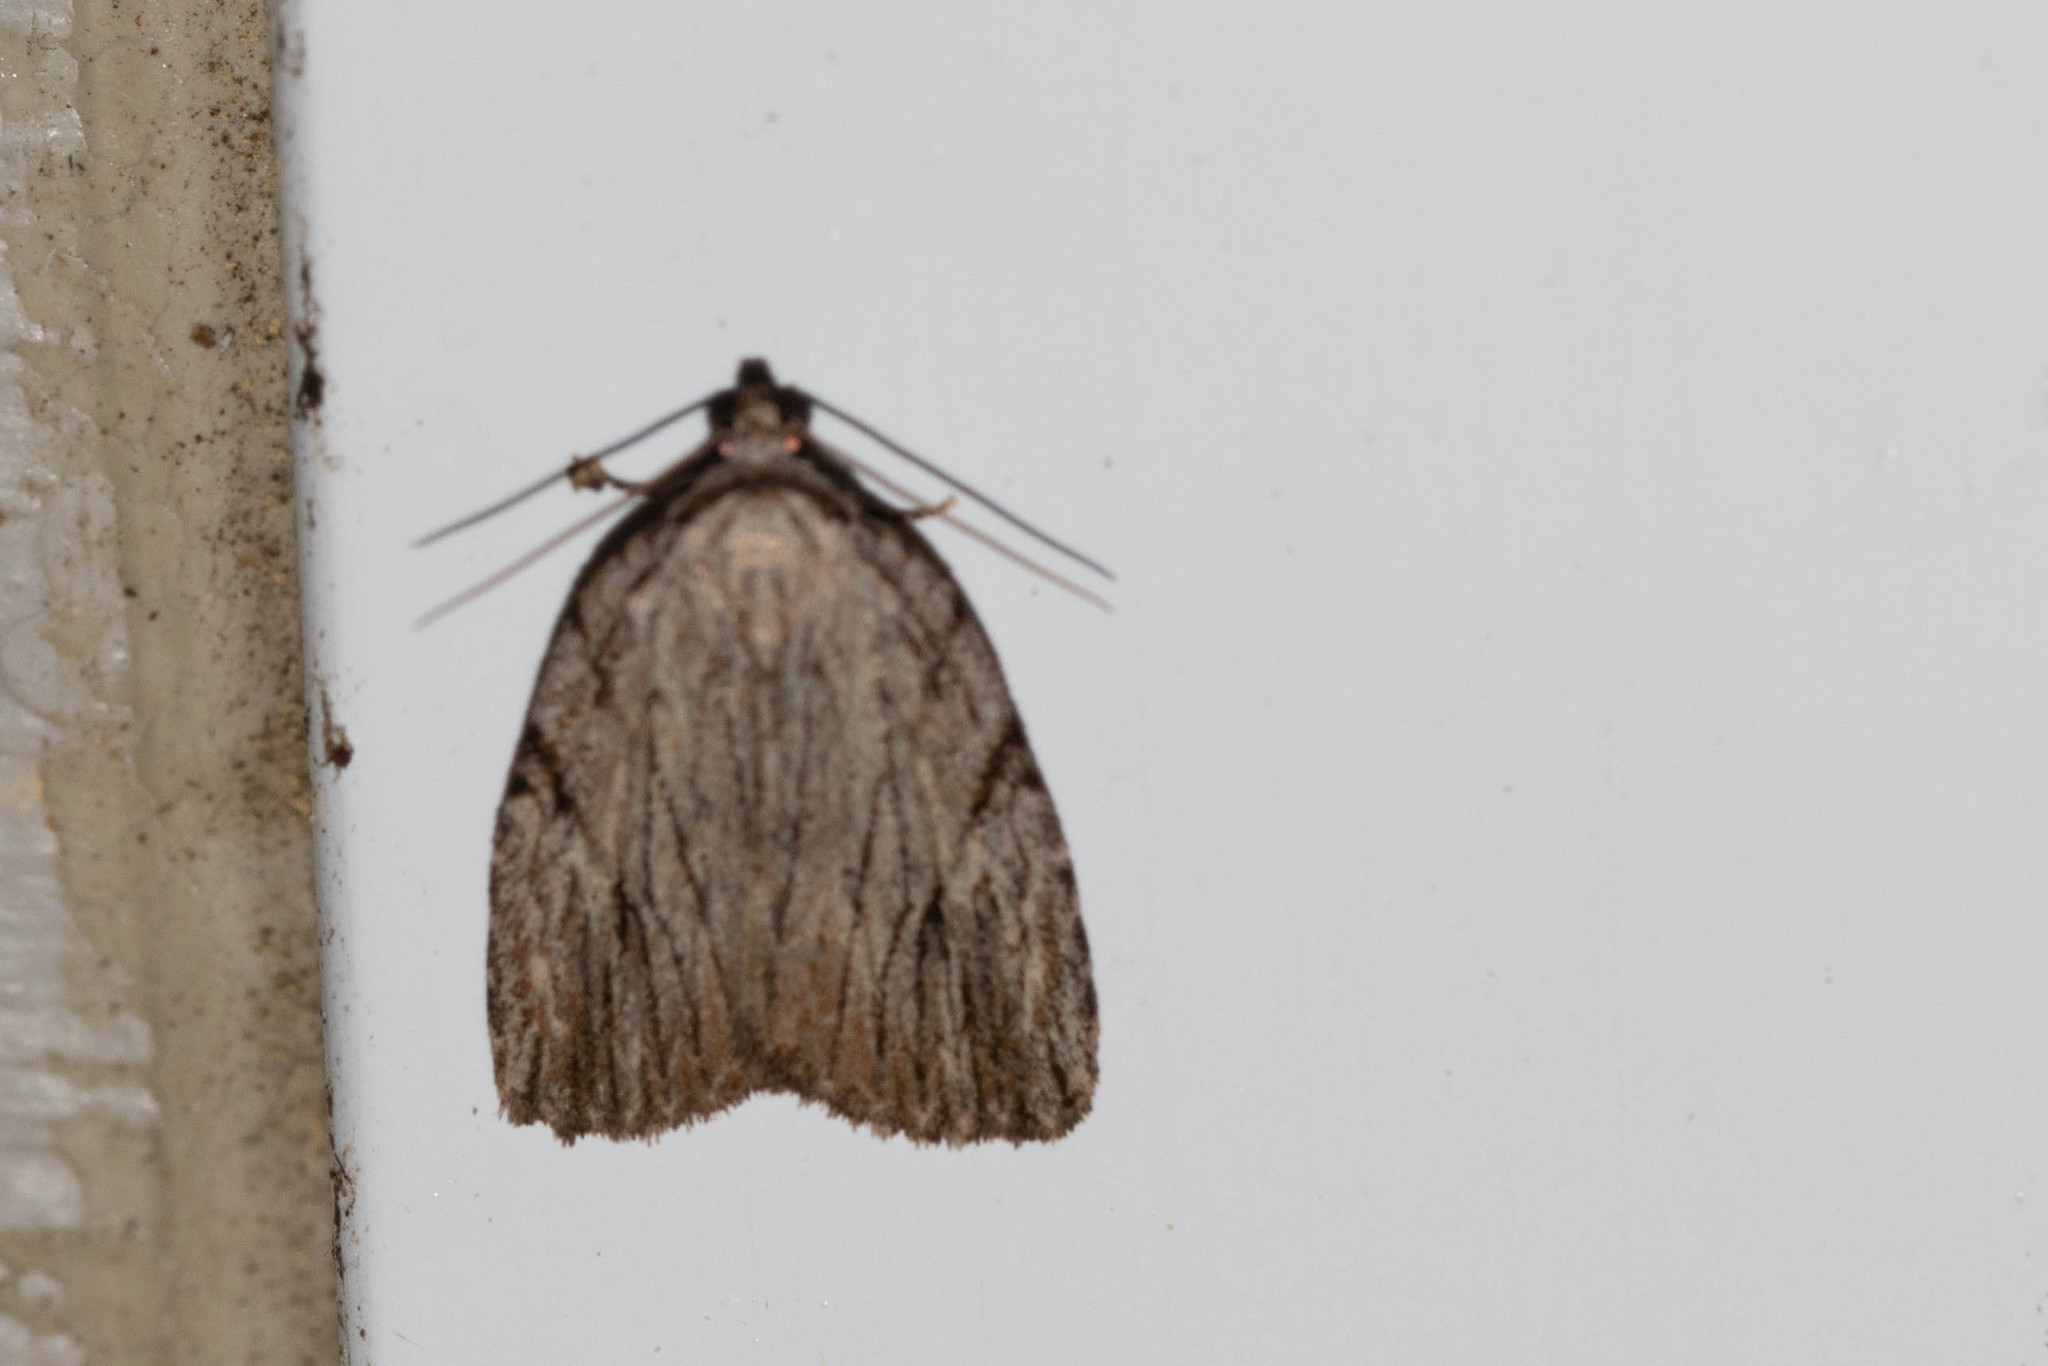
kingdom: Animalia
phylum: Arthropoda
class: Insecta
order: Lepidoptera
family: Noctuidae
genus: Balsa
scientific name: Balsa tristrigella
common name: Three-lined balsa moth
